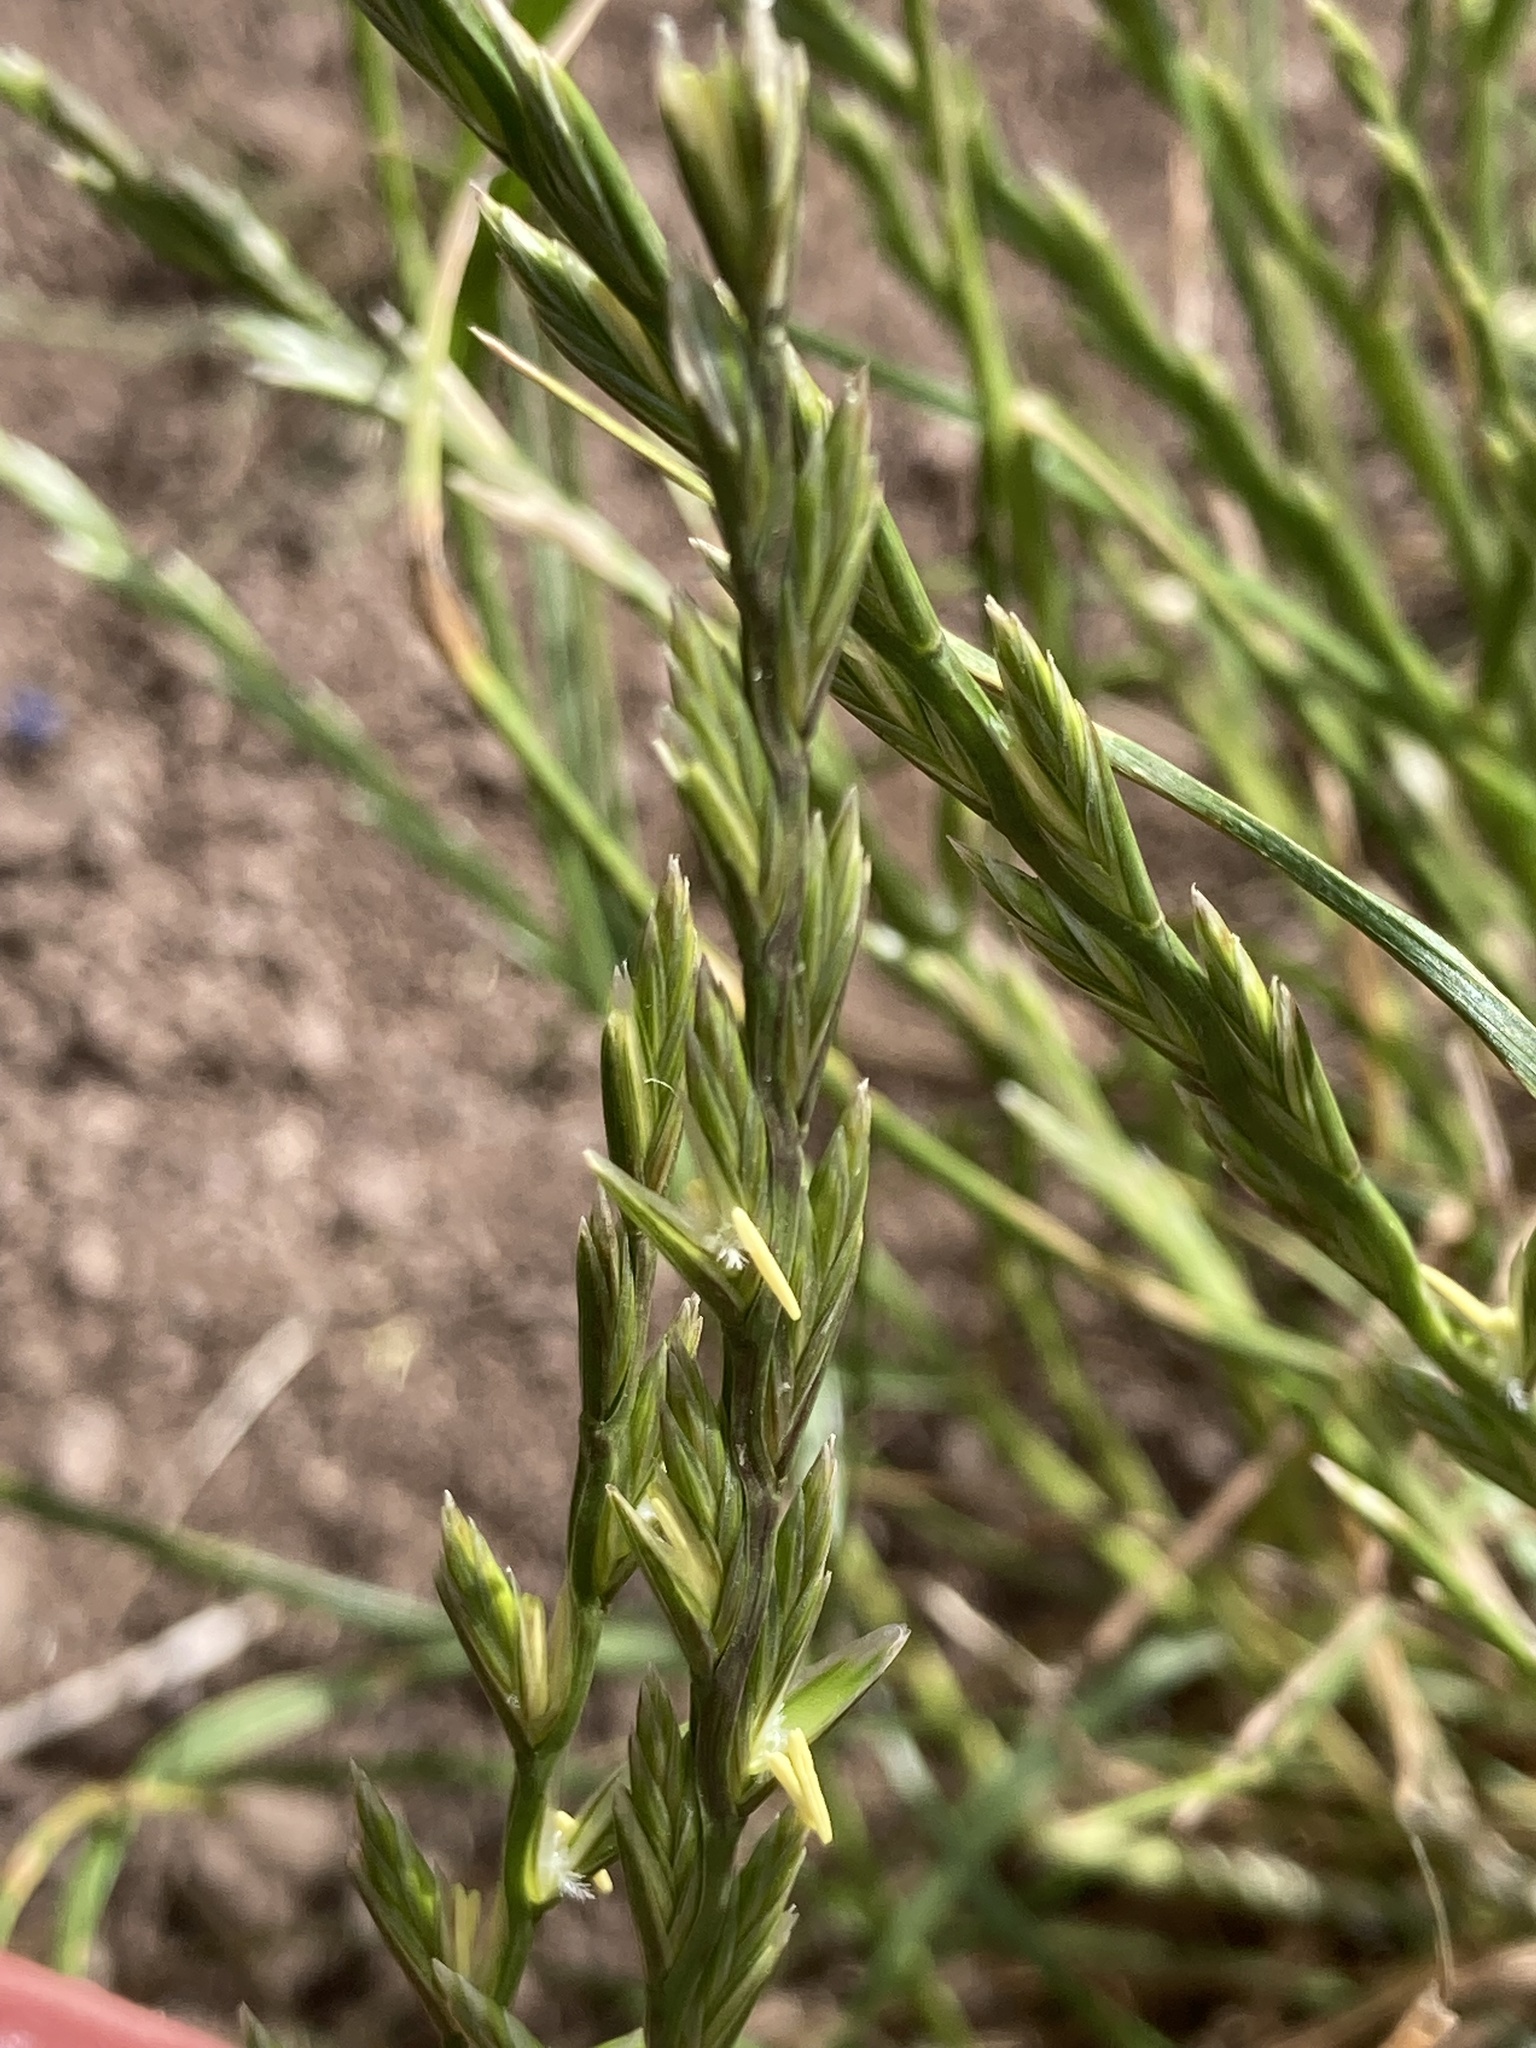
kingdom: Plantae
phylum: Tracheophyta
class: Liliopsida
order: Poales
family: Poaceae
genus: Lolium
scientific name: Lolium perenne
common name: Perennial ryegrass
